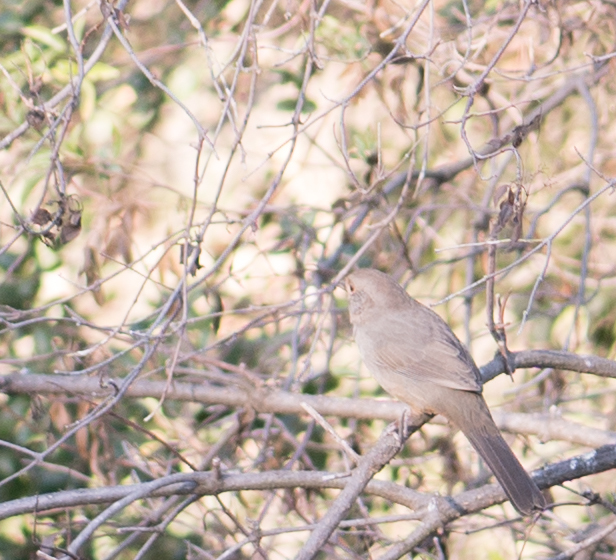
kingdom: Animalia
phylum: Chordata
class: Aves
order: Passeriformes
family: Passerellidae
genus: Melozone
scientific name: Melozone crissalis
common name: California towhee
